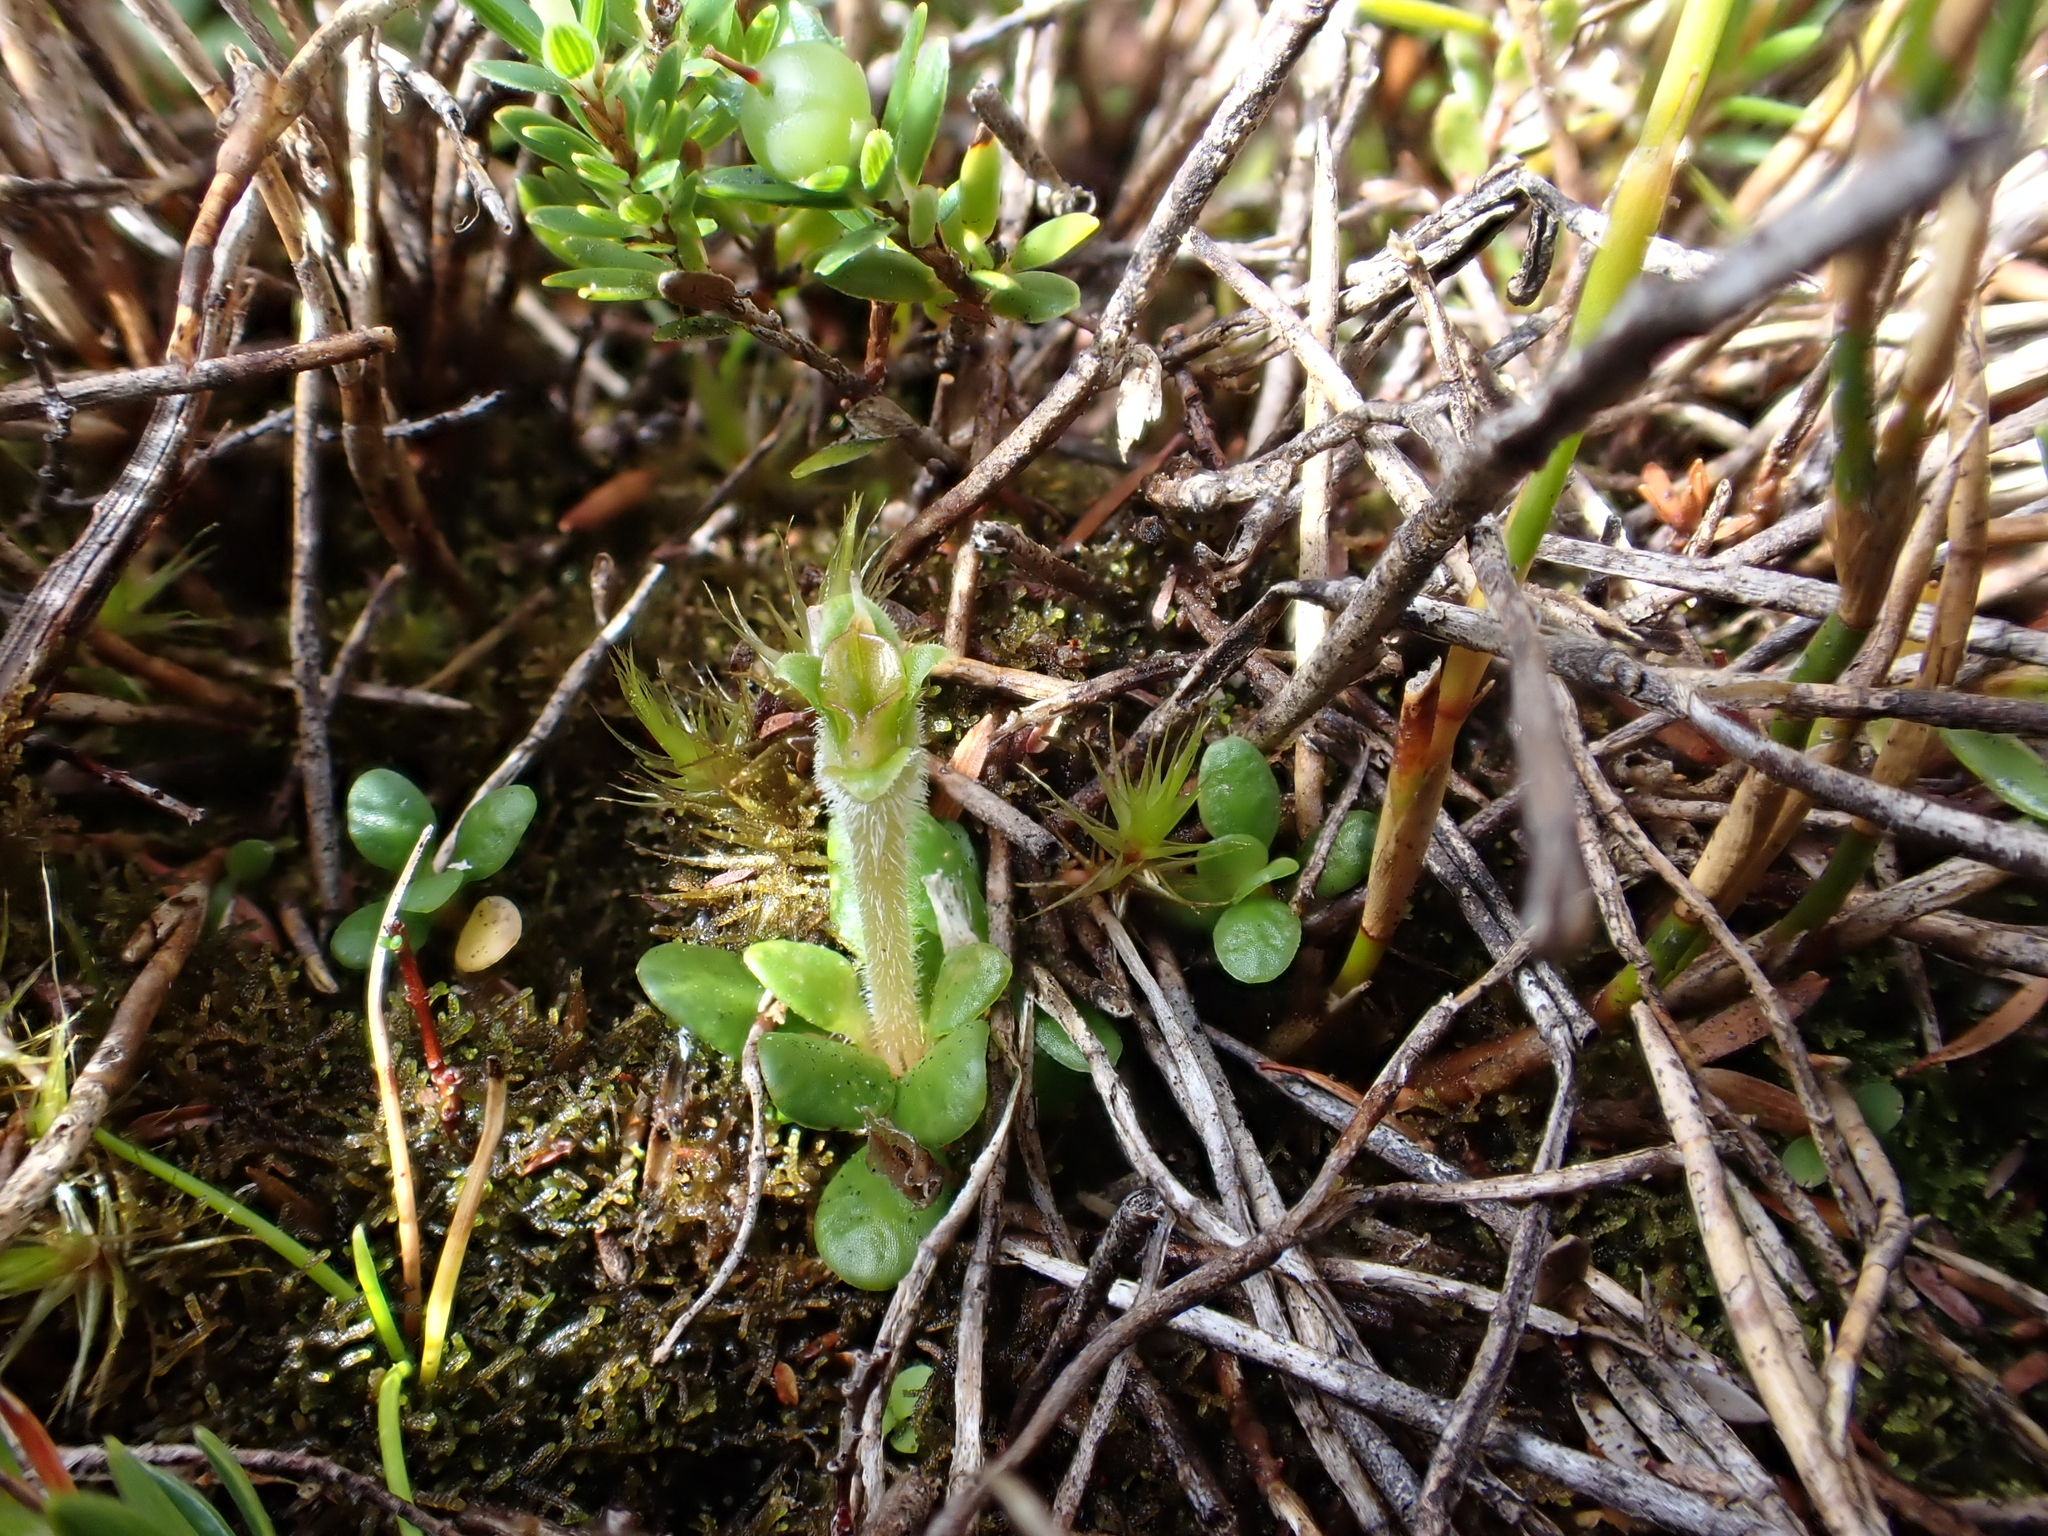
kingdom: Plantae
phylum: Tracheophyta
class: Magnoliopsida
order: Gentianales
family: Loganiaceae
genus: Schizacme
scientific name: Schizacme montana
